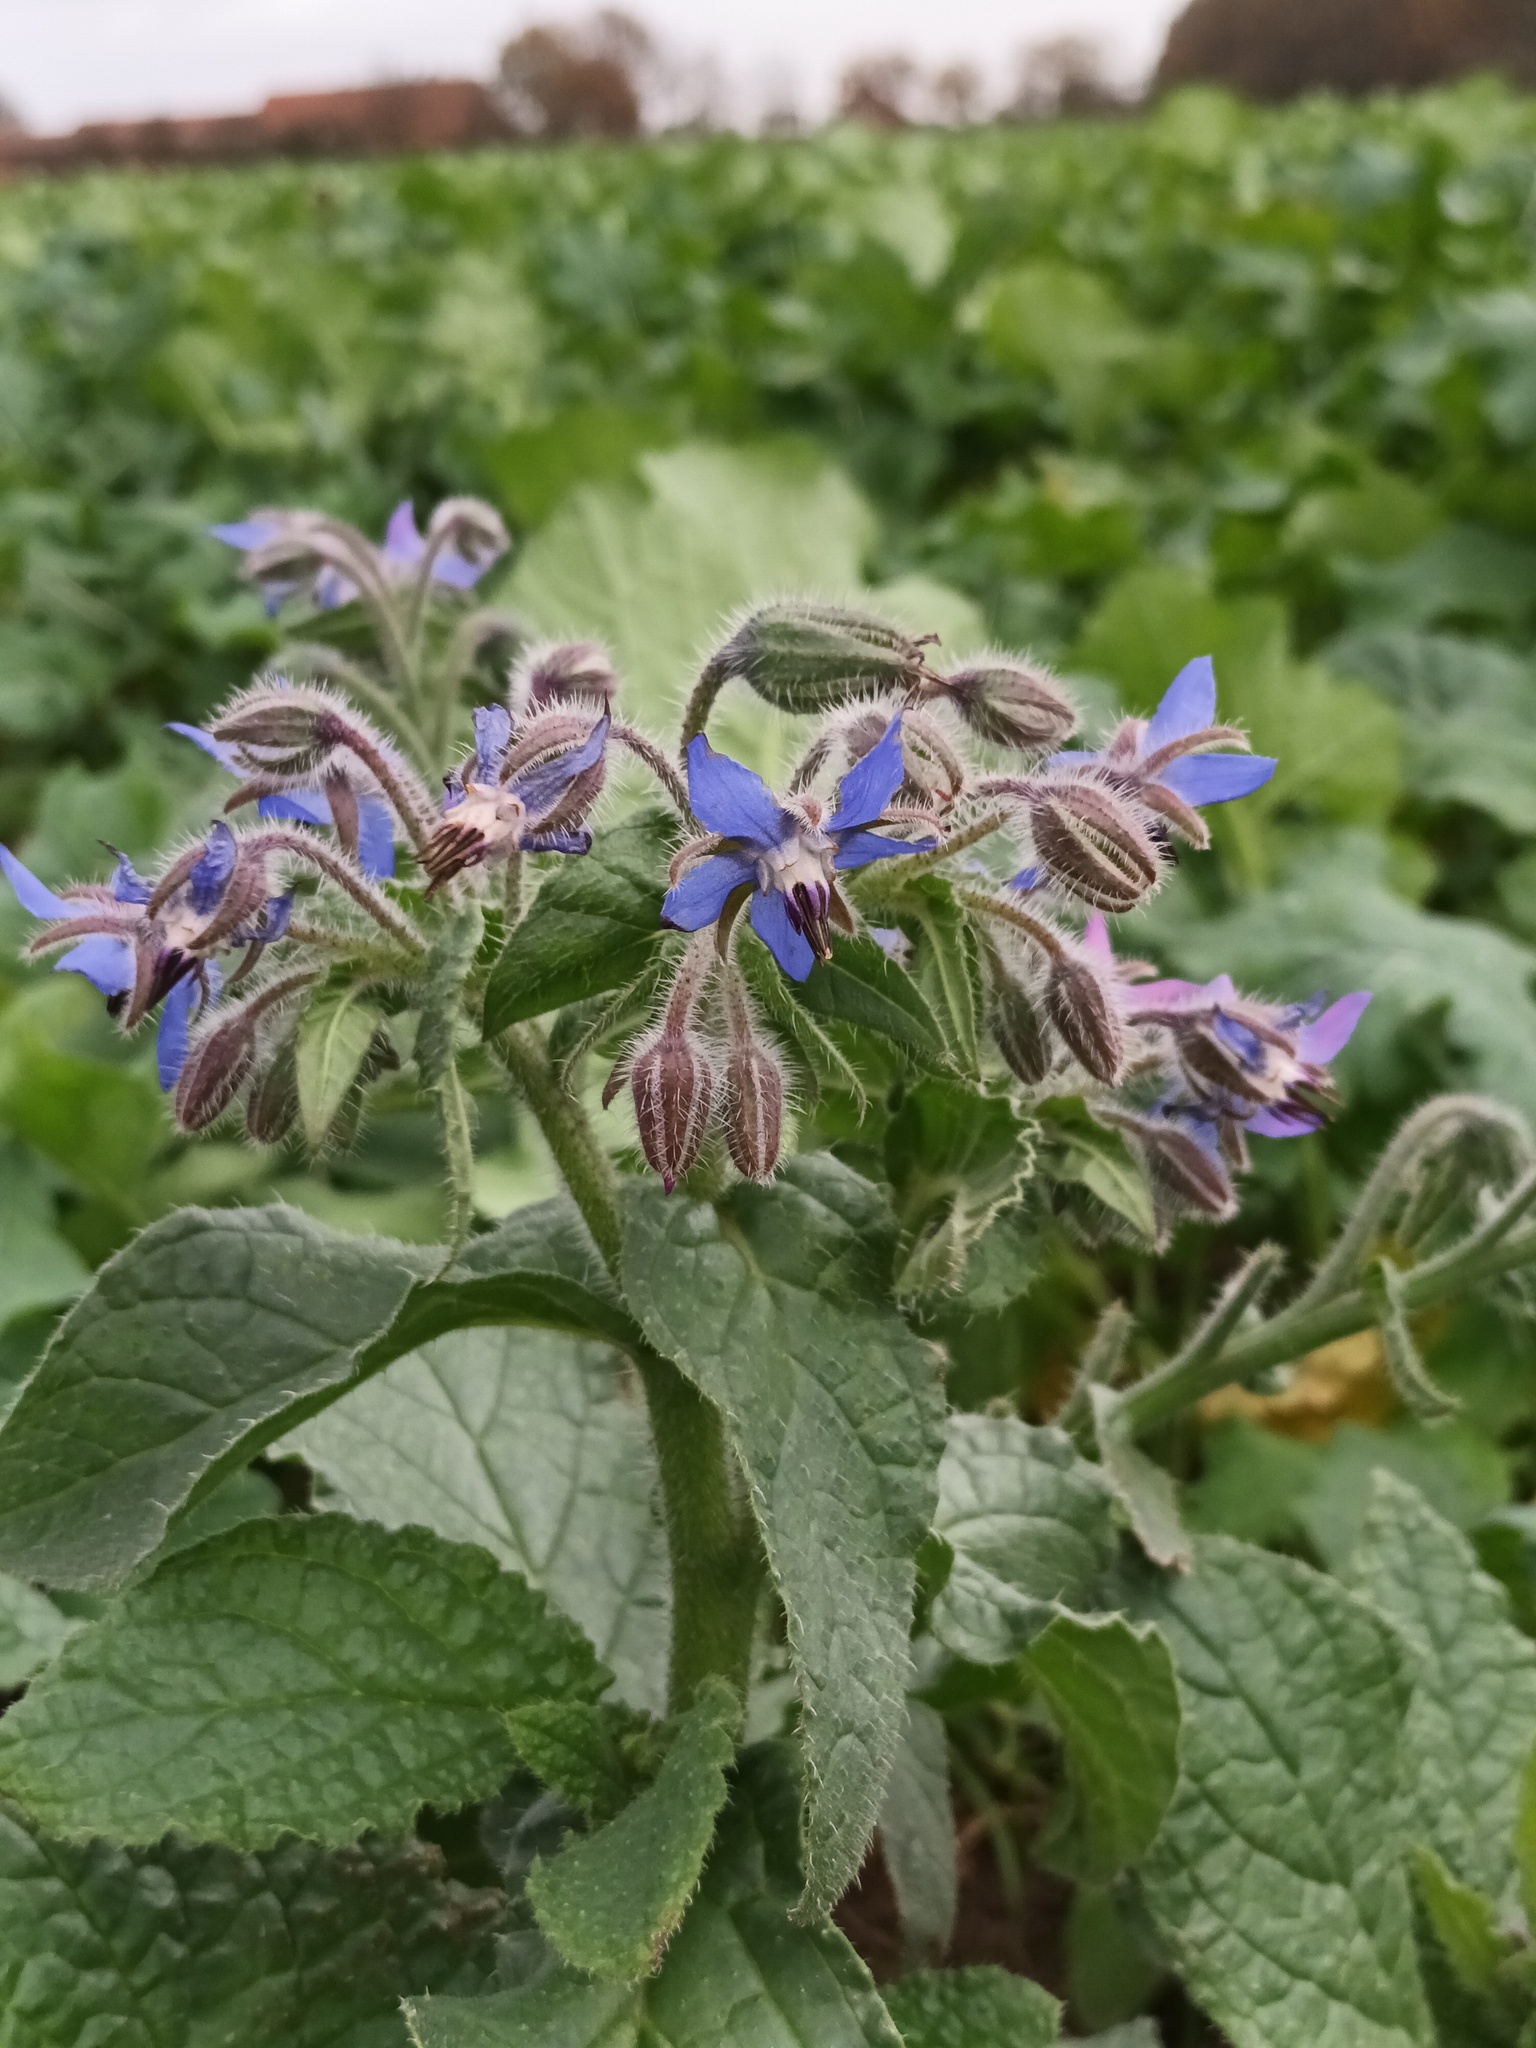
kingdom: Plantae
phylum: Tracheophyta
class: Magnoliopsida
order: Boraginales
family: Boraginaceae
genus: Borago
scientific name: Borago officinalis
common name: Borage
